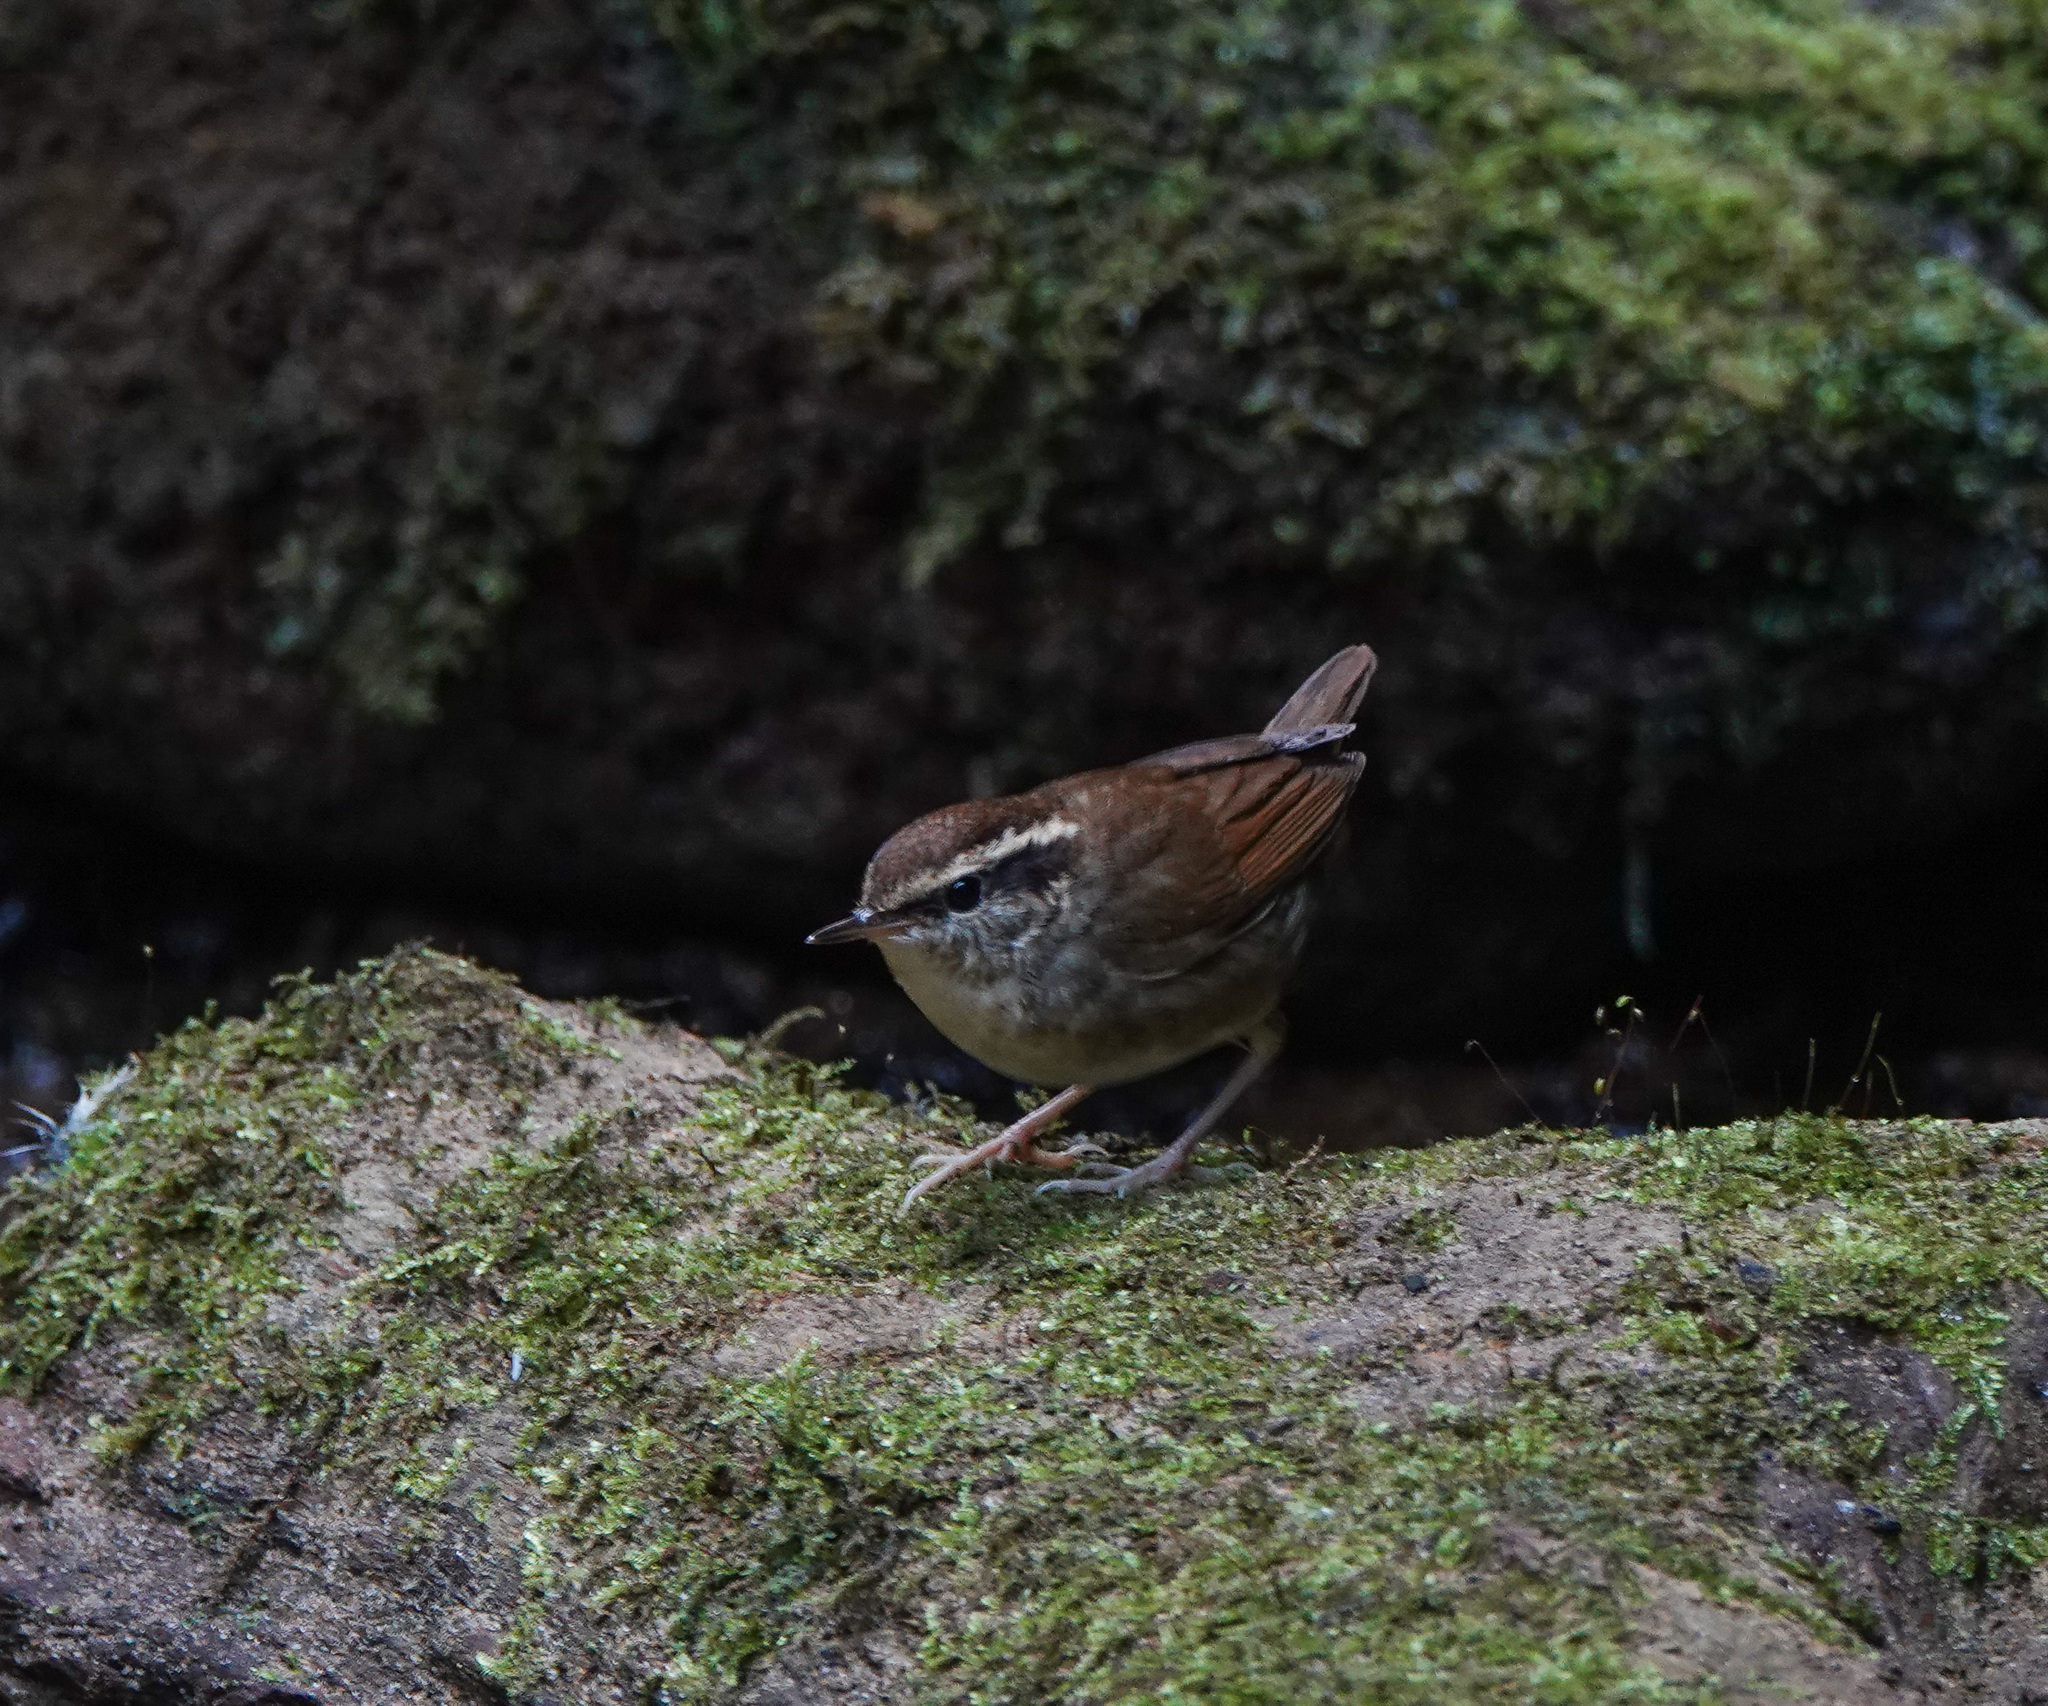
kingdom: Animalia
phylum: Chordata
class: Aves
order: Passeriformes
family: Cettiidae
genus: Urosphena
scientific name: Urosphena squameiceps
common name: Asian stubtail
